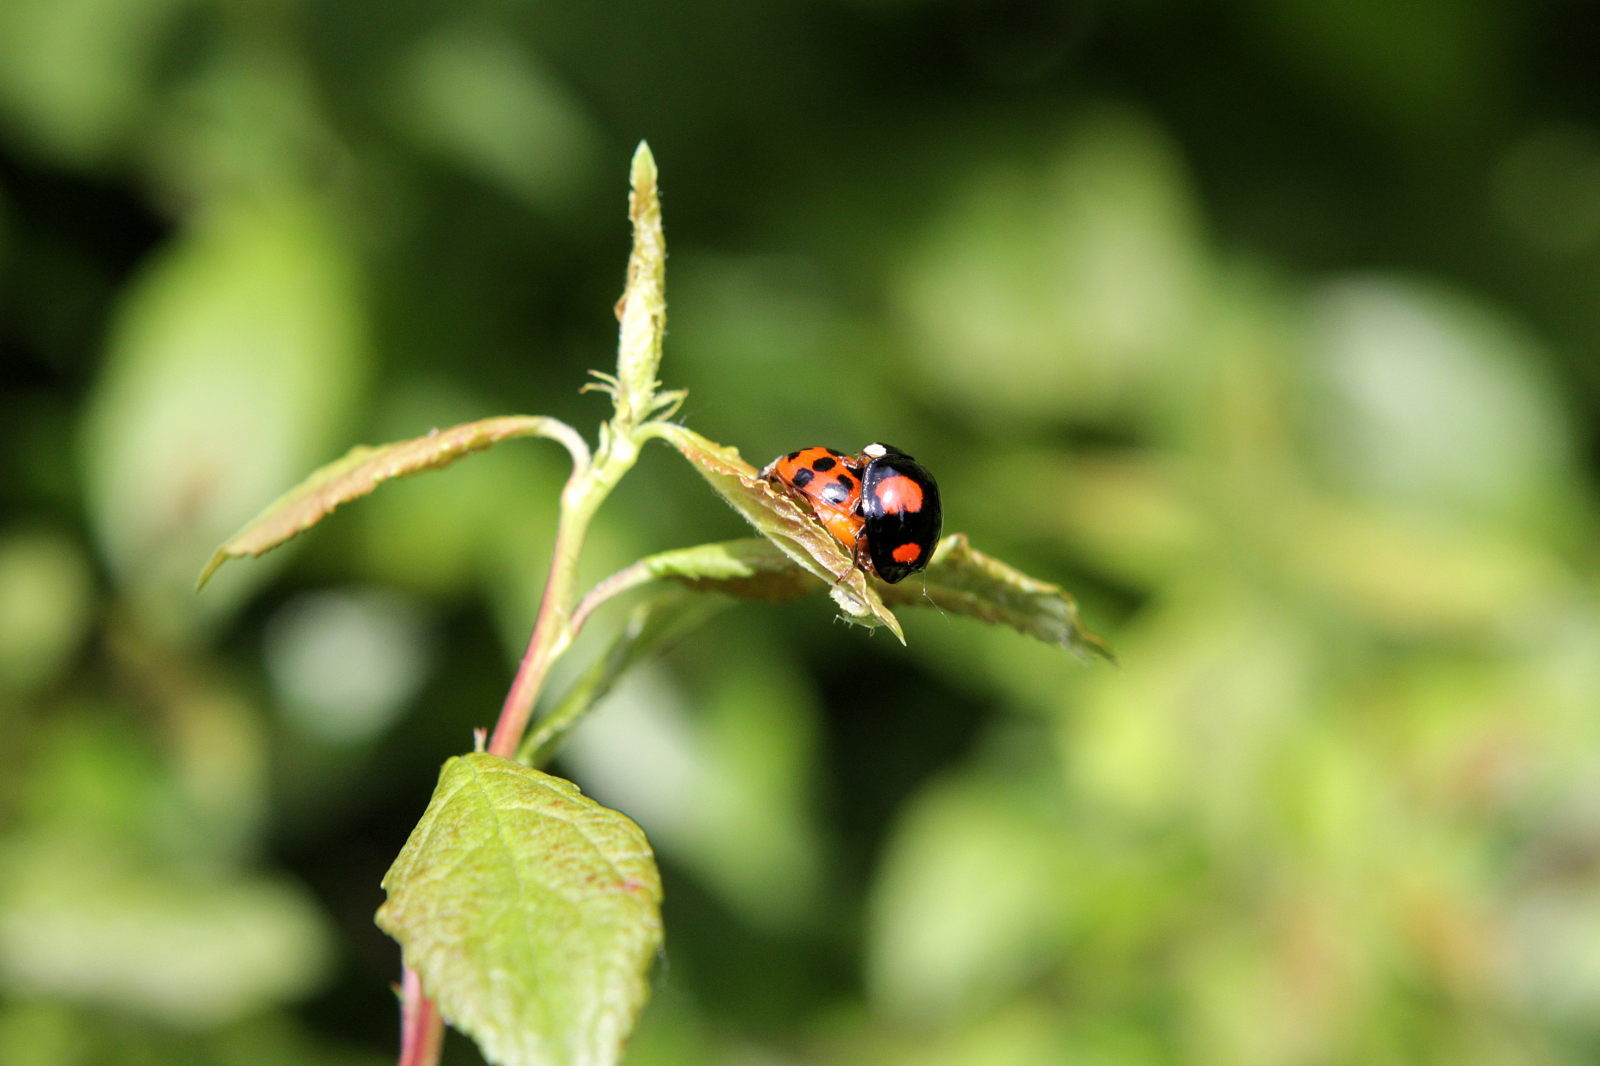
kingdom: Animalia
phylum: Arthropoda
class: Insecta
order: Coleoptera
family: Coccinellidae
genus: Harmonia
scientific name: Harmonia axyridis
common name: Harlequin ladybird
